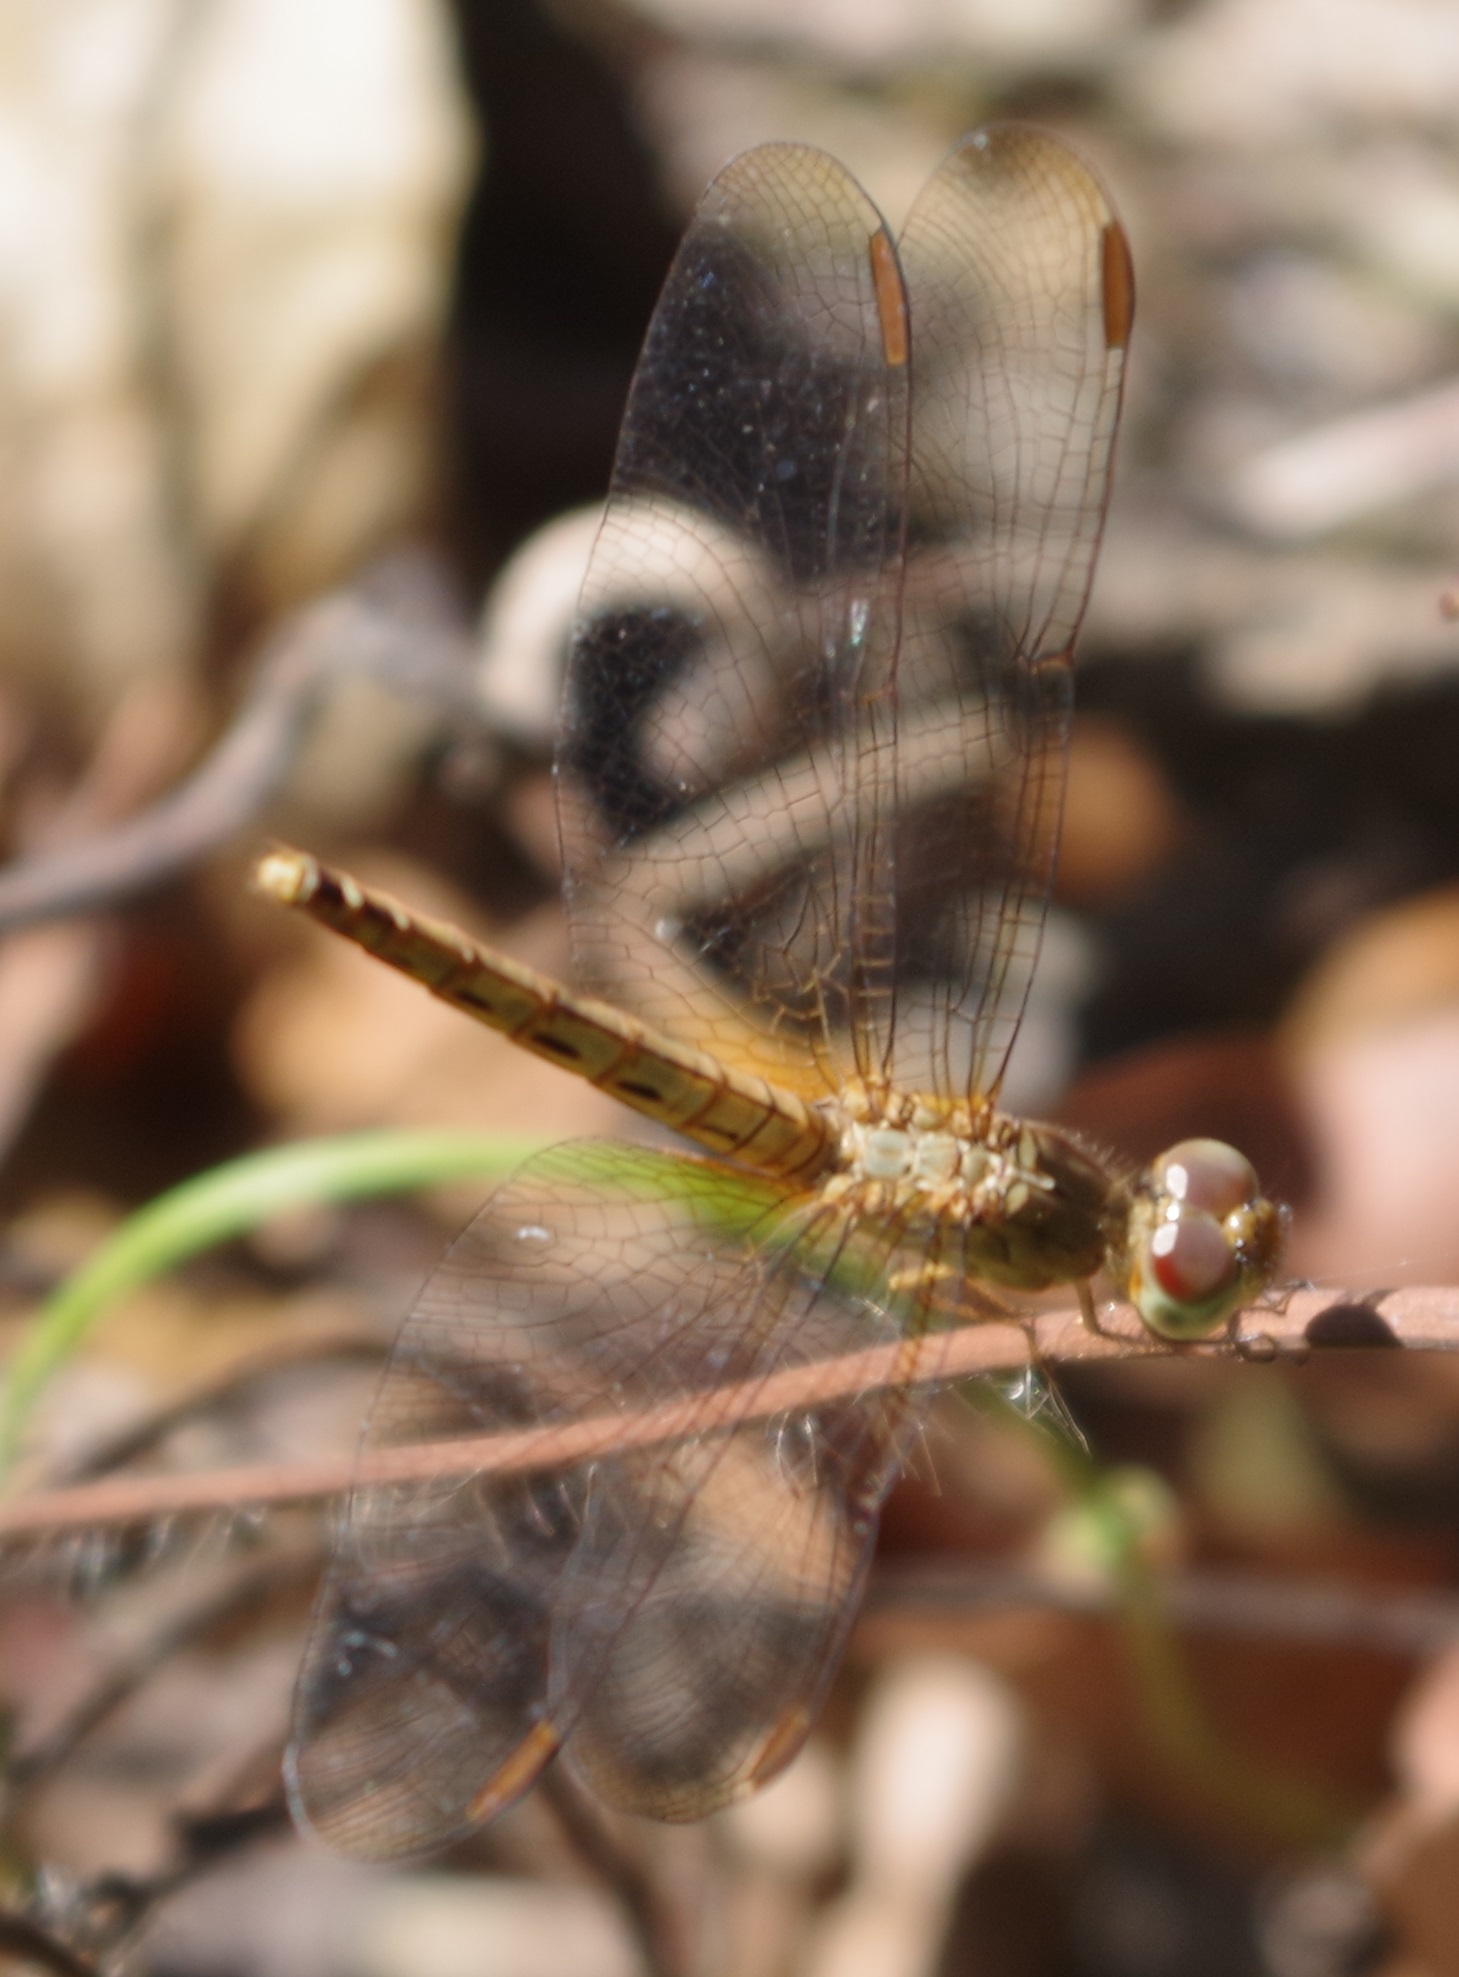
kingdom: Animalia
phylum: Arthropoda
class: Insecta
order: Odonata
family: Libellulidae
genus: Neurothemis
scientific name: Neurothemis fluctuans
